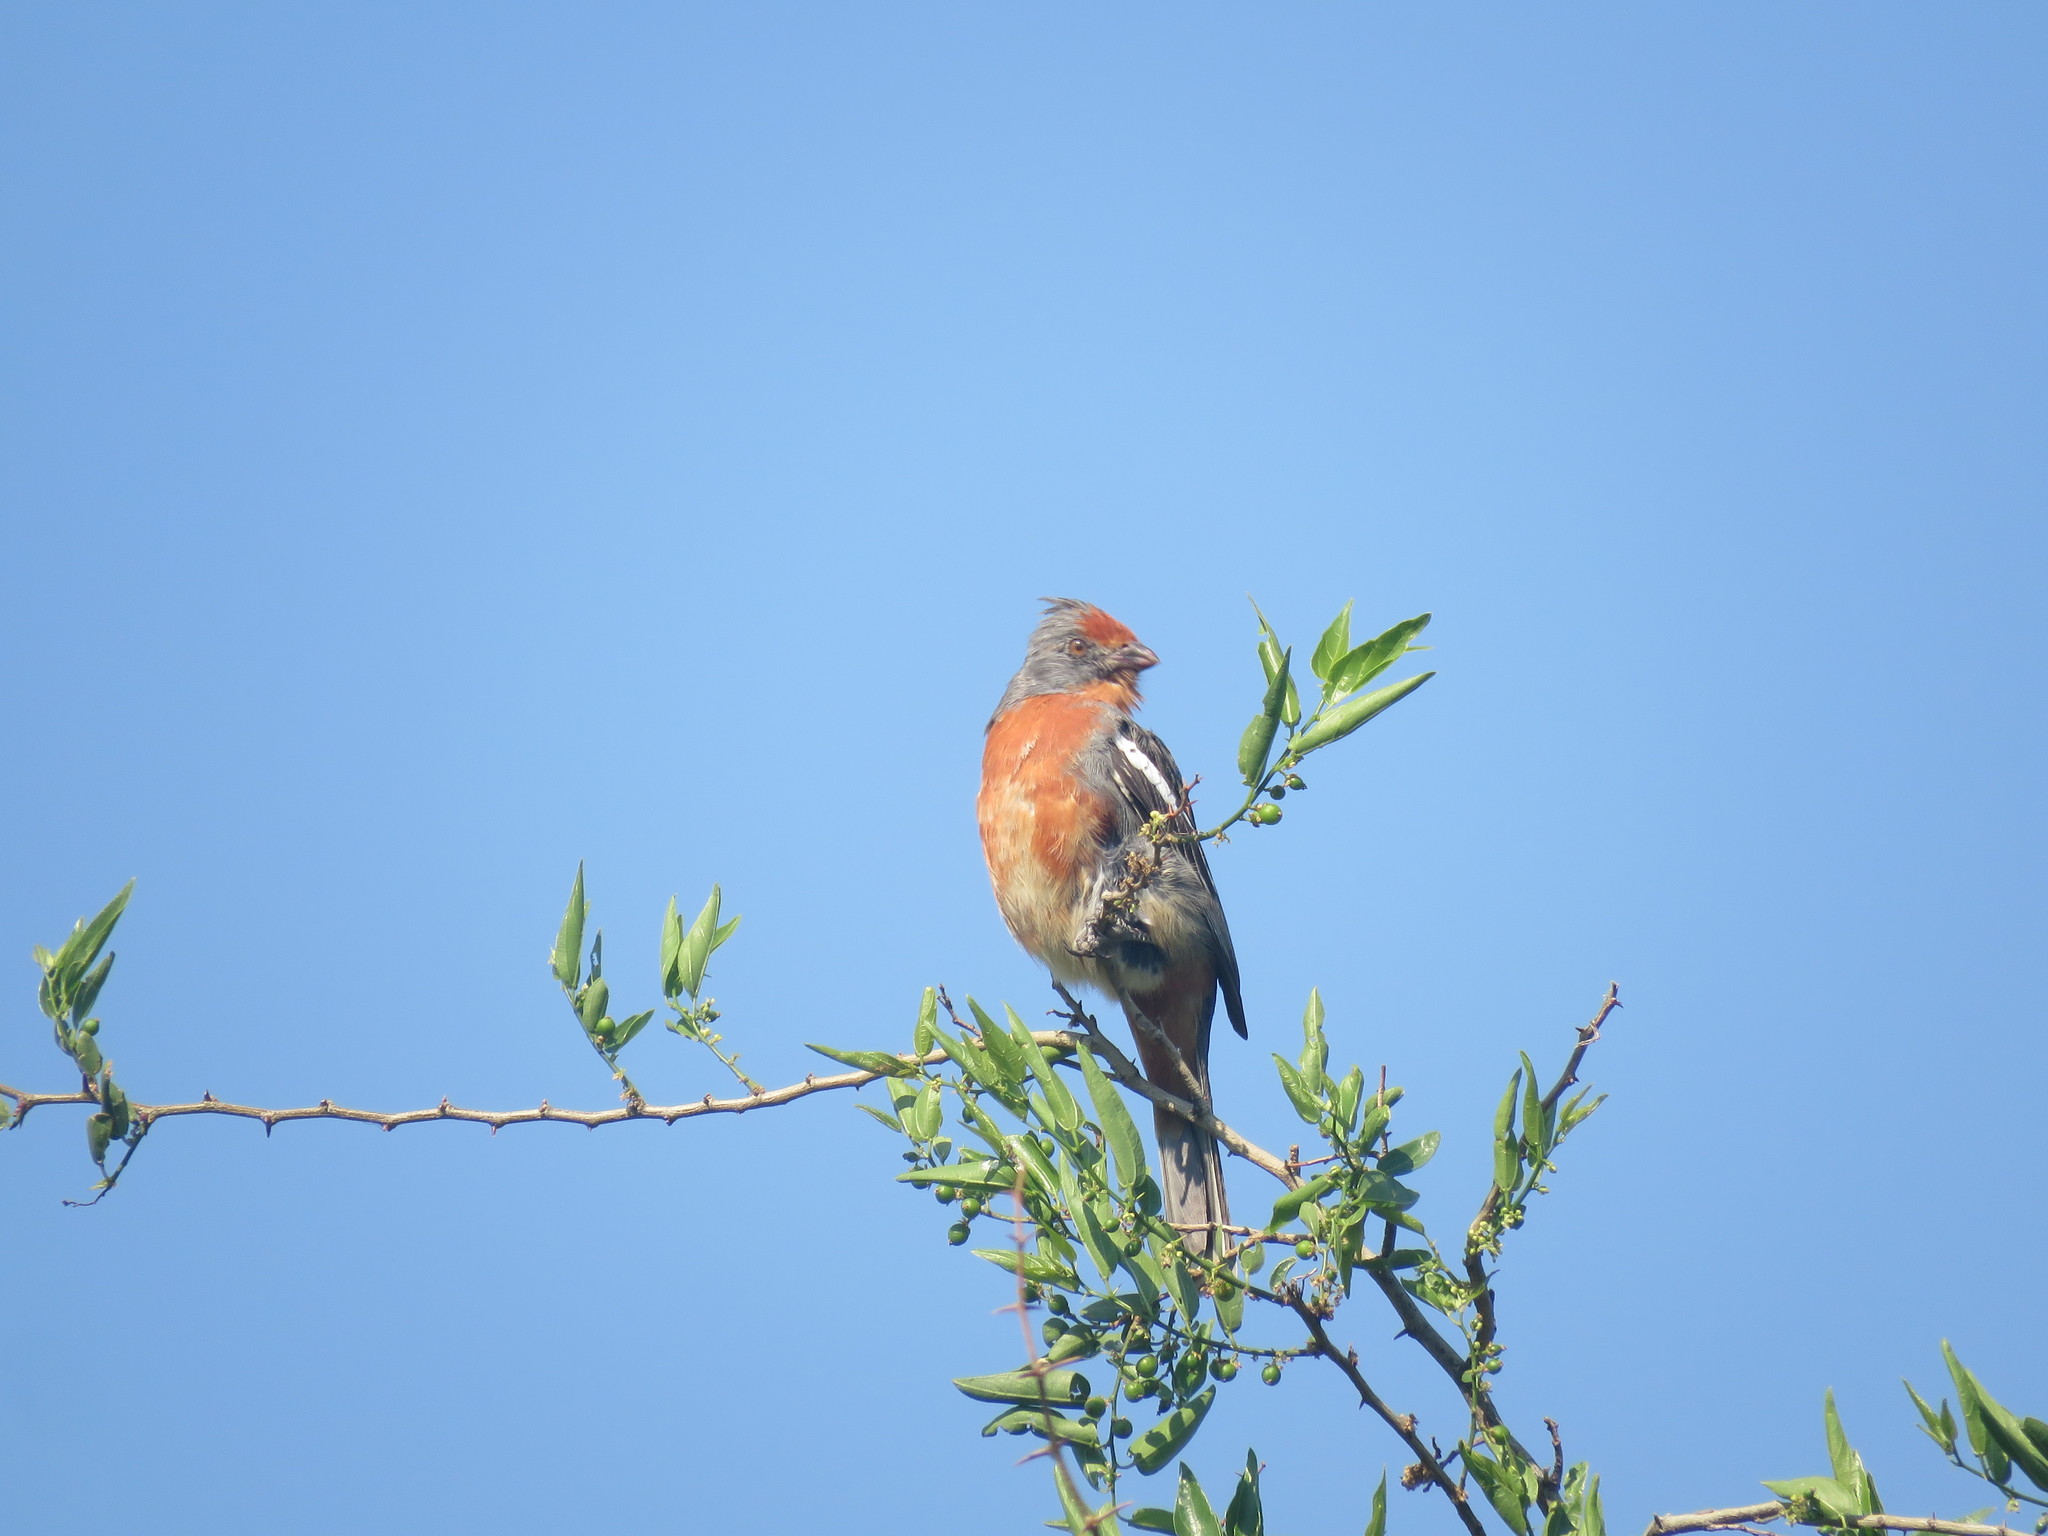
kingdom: Animalia
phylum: Chordata
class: Aves
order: Passeriformes
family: Cotingidae
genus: Phytotoma
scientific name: Phytotoma rutila
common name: White-tipped plantcutter
